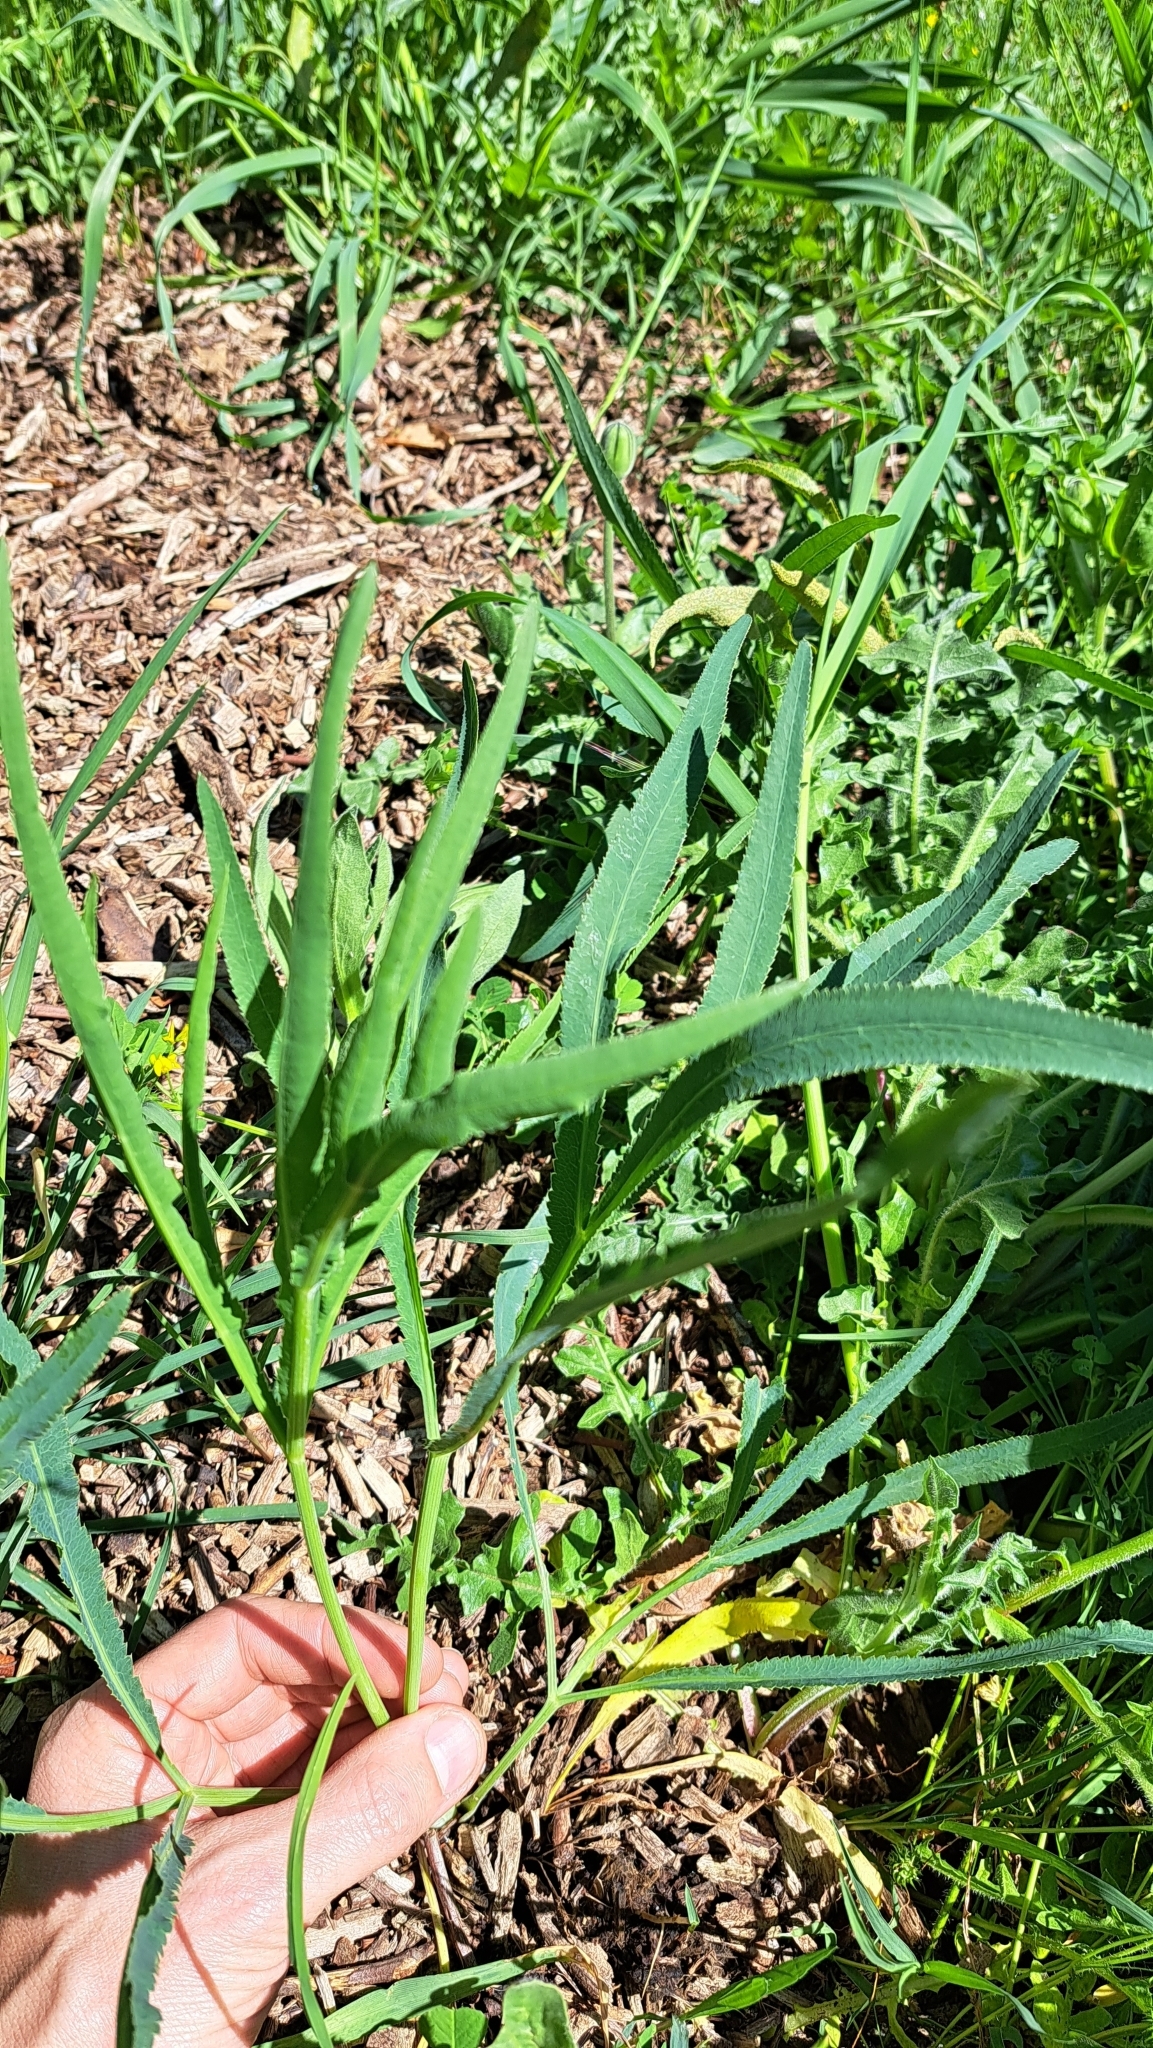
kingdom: Plantae
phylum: Tracheophyta
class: Magnoliopsida
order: Apiales
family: Apiaceae
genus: Falcaria
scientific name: Falcaria vulgaris
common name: Longleaf
